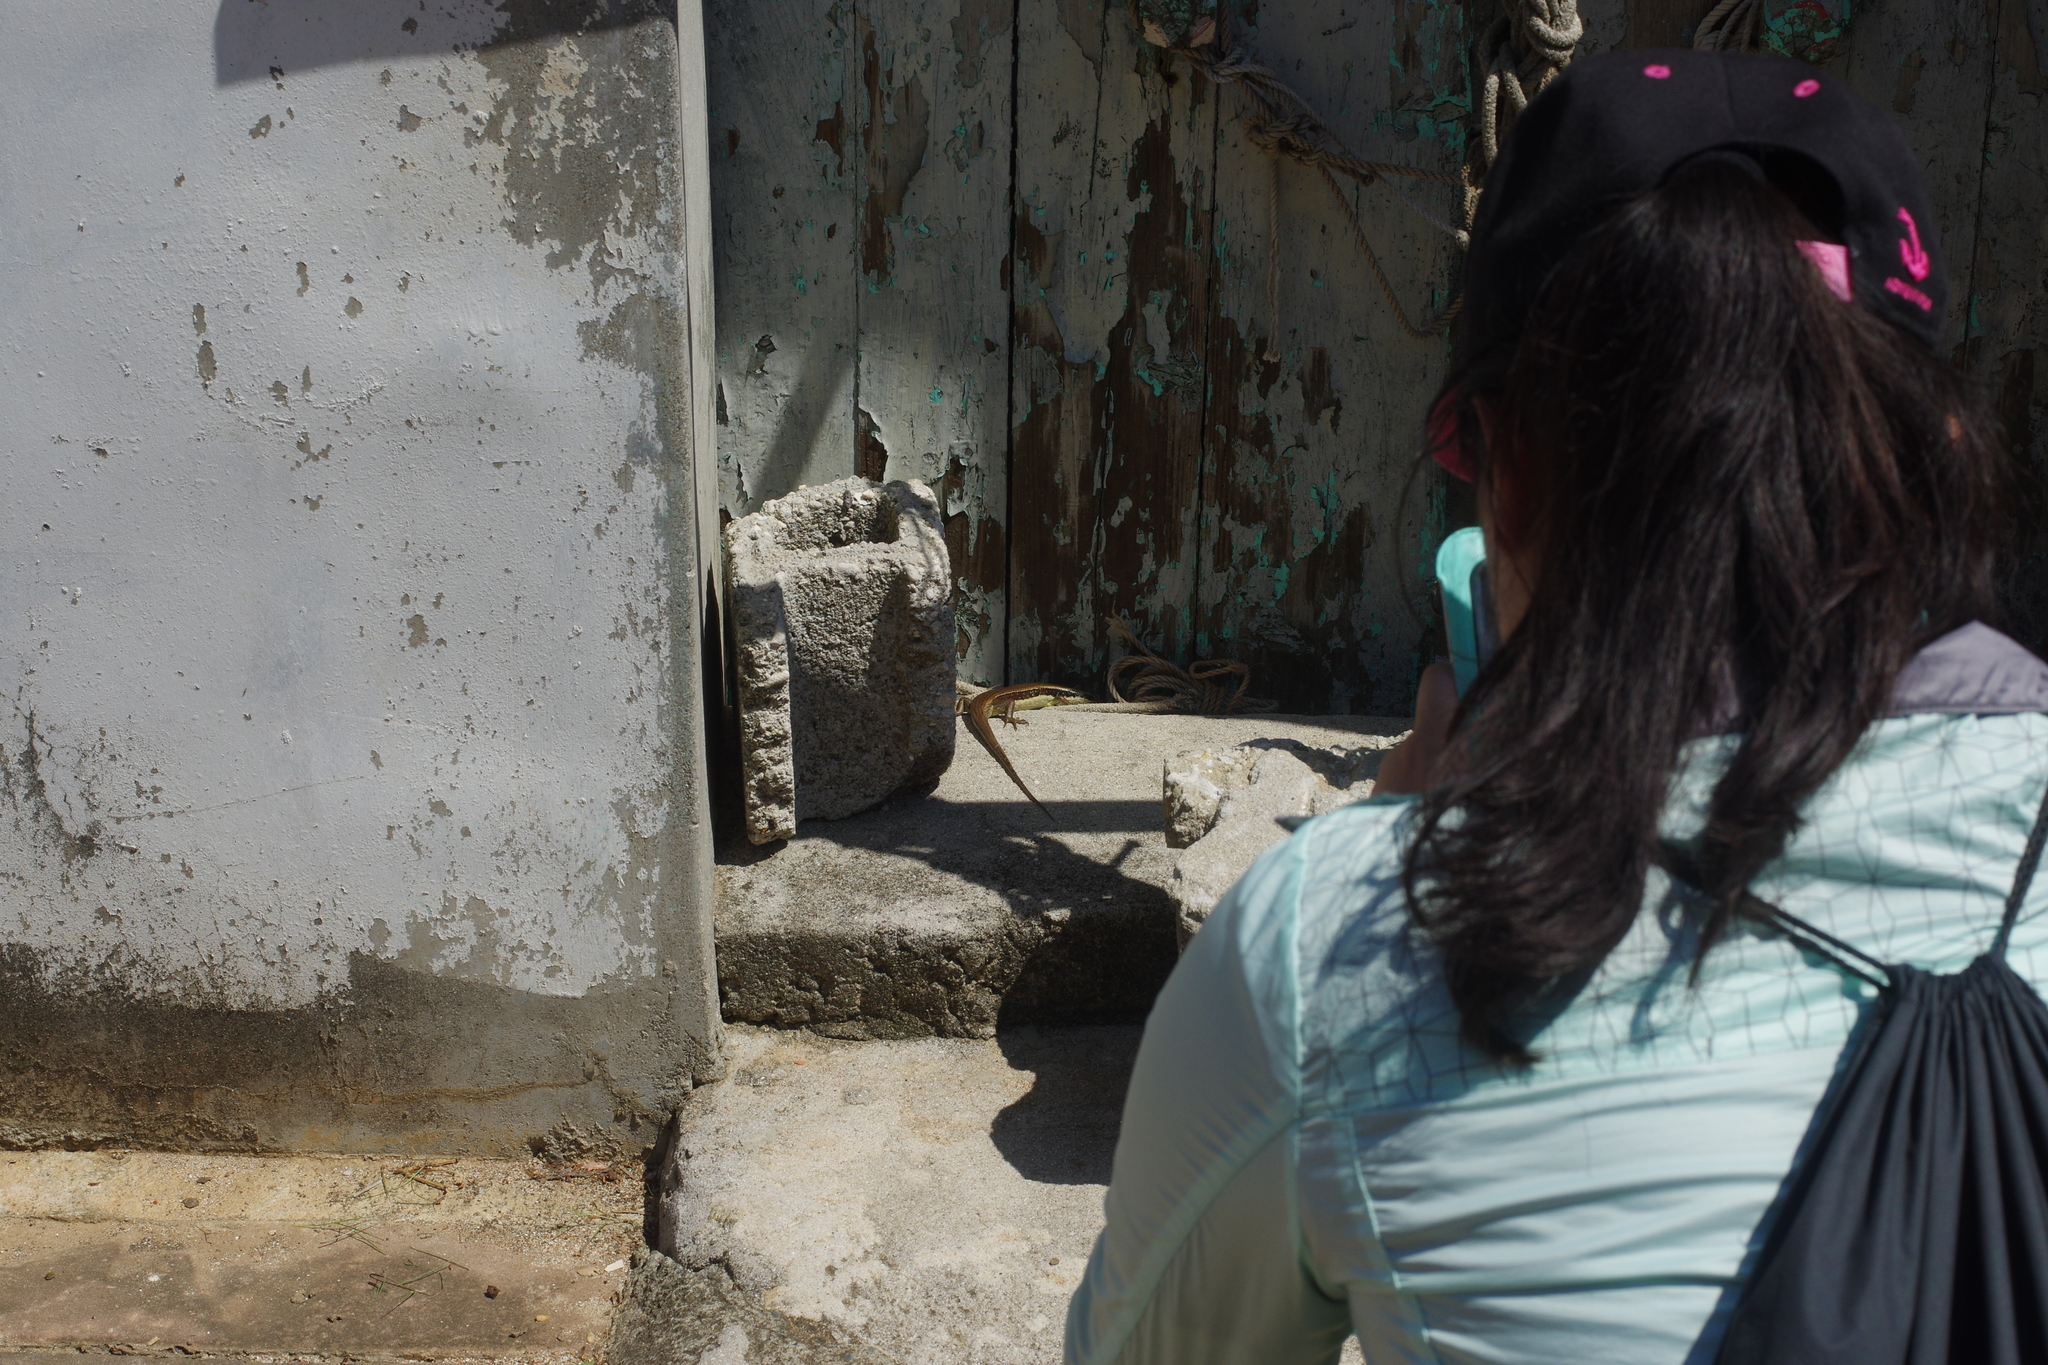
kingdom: Animalia
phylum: Chordata
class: Squamata
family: Scincidae
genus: Eutropis
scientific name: Eutropis longicaudata
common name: Long-tailed sun skink
